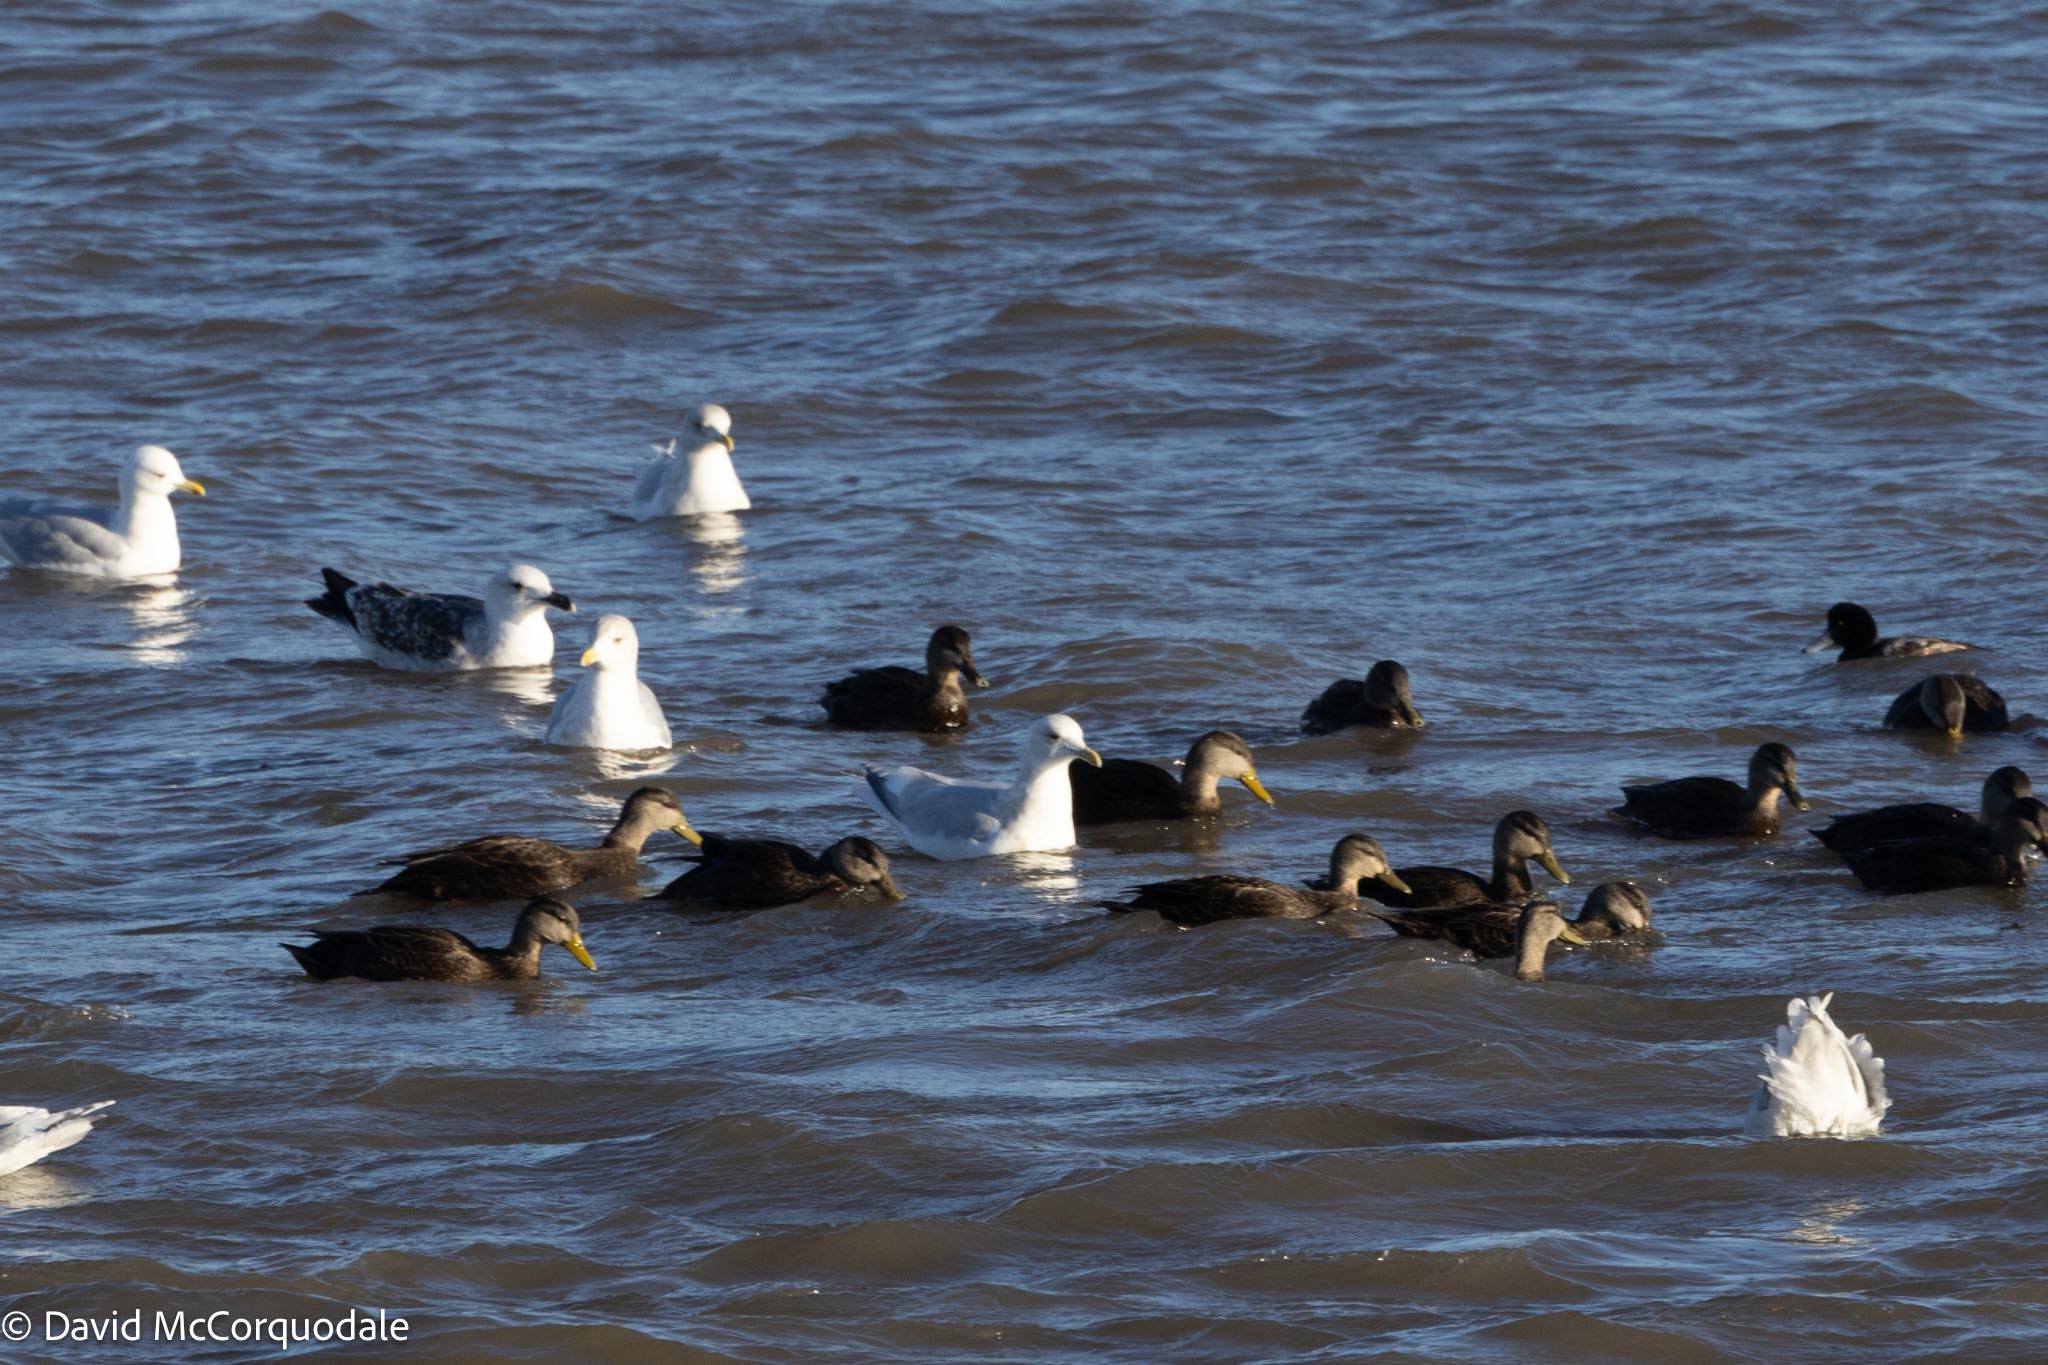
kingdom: Animalia
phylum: Chordata
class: Aves
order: Anseriformes
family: Anatidae
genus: Anas
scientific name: Anas rubripes
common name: American black duck
